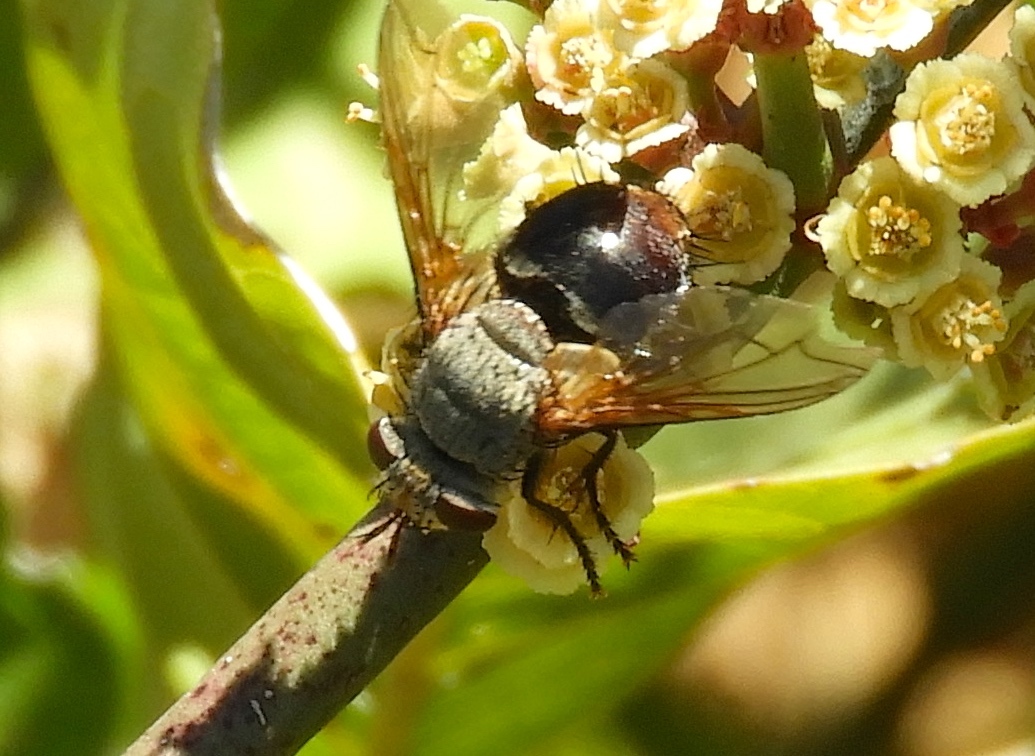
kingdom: Animalia
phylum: Arthropoda
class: Insecta
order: Diptera
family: Tachinidae
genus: Archytas
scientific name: Archytas
